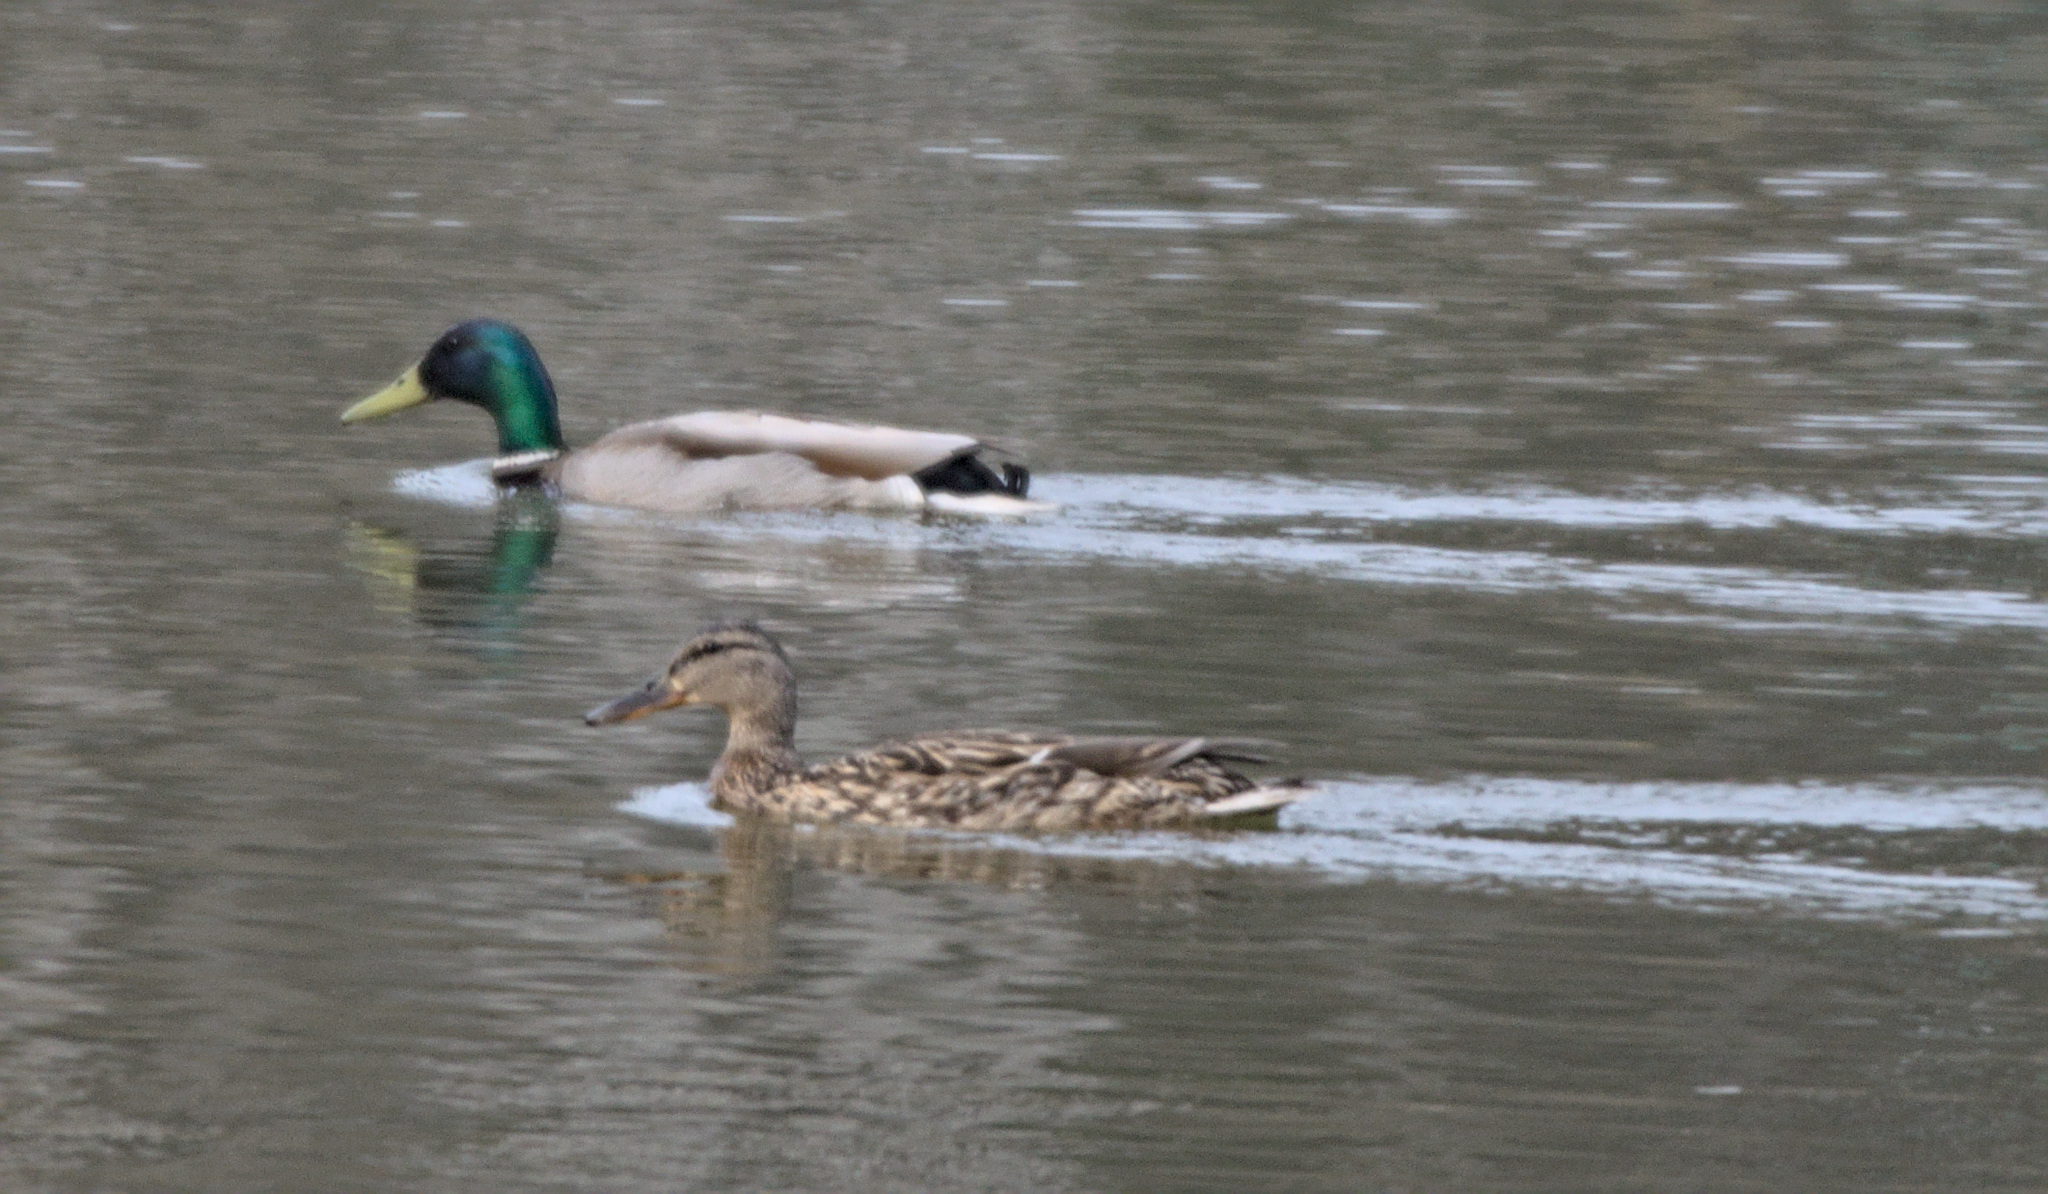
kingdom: Animalia
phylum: Chordata
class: Aves
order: Anseriformes
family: Anatidae
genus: Anas
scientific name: Anas platyrhynchos
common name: Mallard
